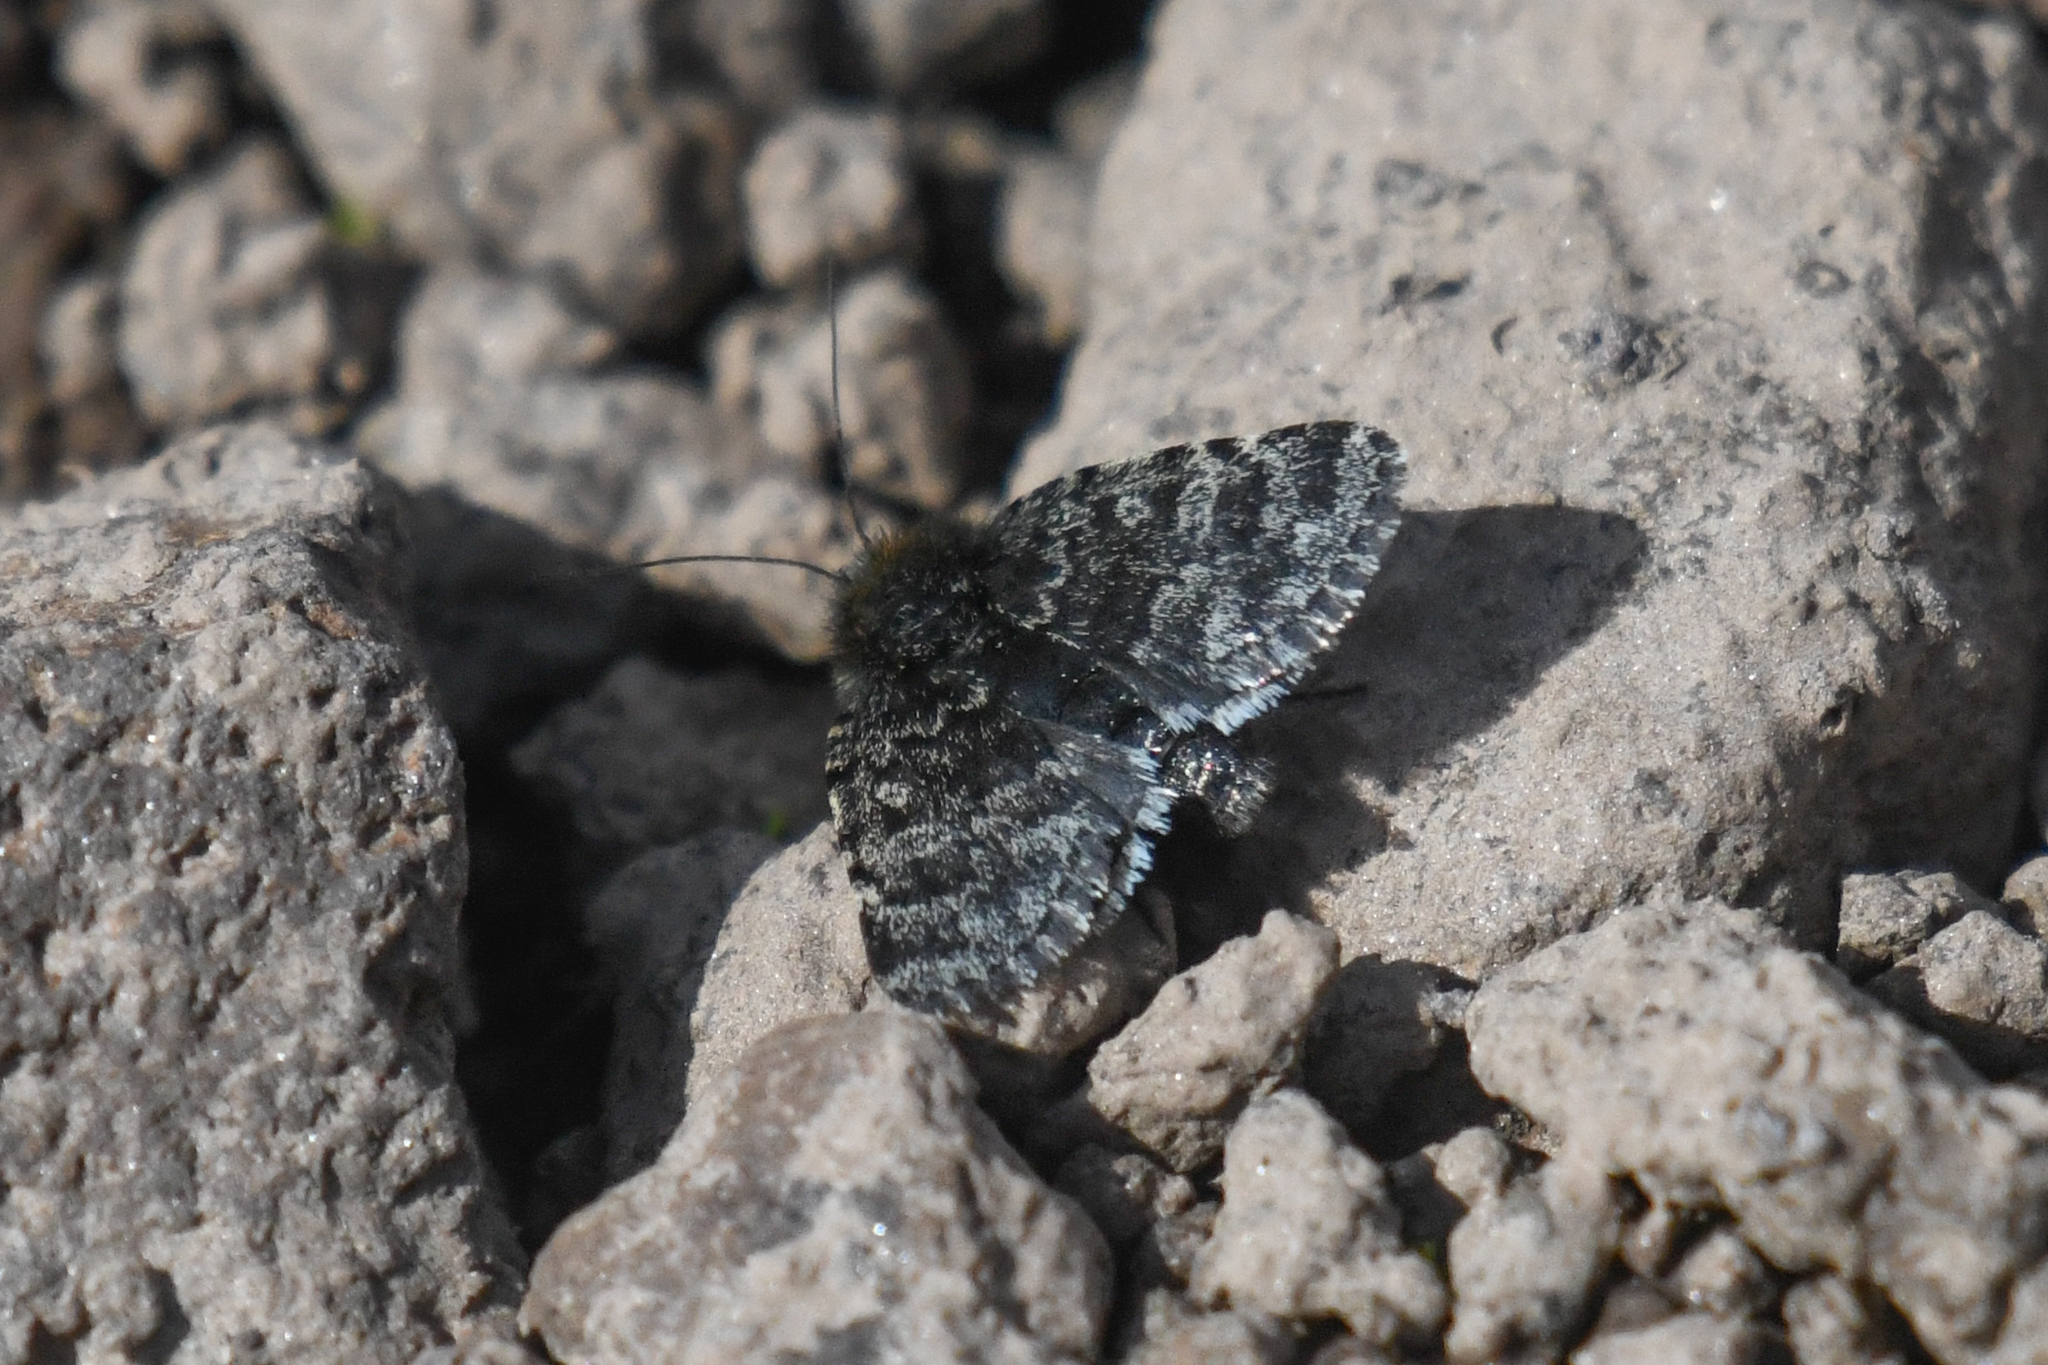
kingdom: Animalia
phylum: Arthropoda
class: Insecta
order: Lepidoptera
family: Noctuidae
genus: Sympistis
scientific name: Sympistis nigrita
